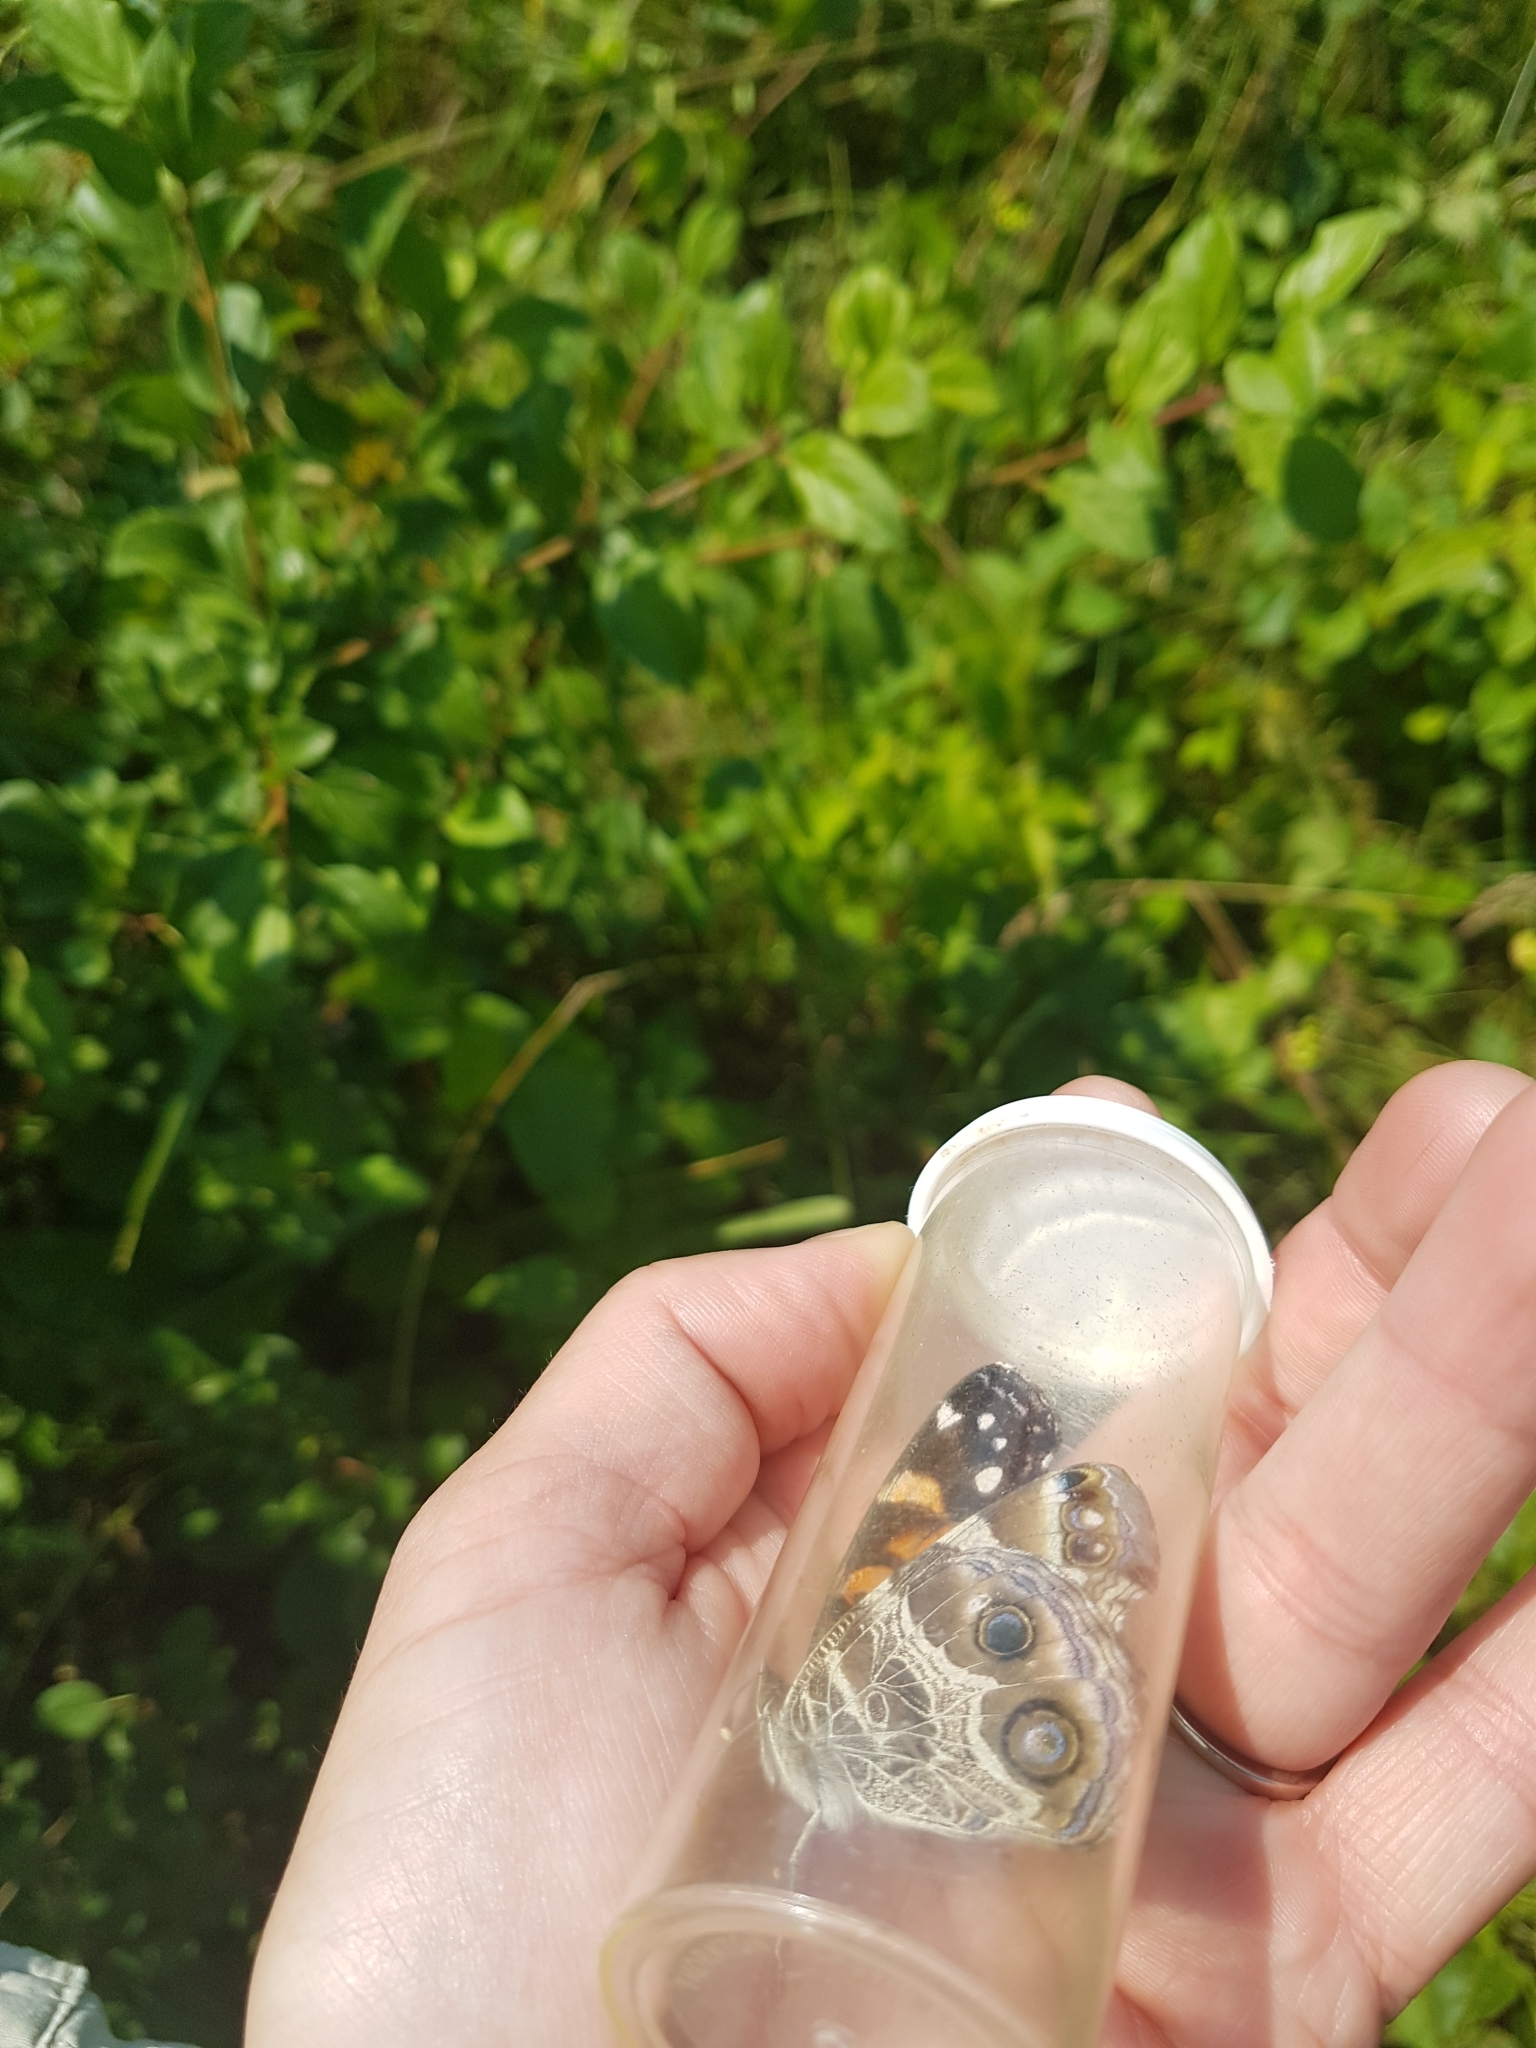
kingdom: Animalia
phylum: Arthropoda
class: Insecta
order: Lepidoptera
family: Nymphalidae
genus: Vanessa
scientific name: Vanessa virginiensis
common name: American lady
